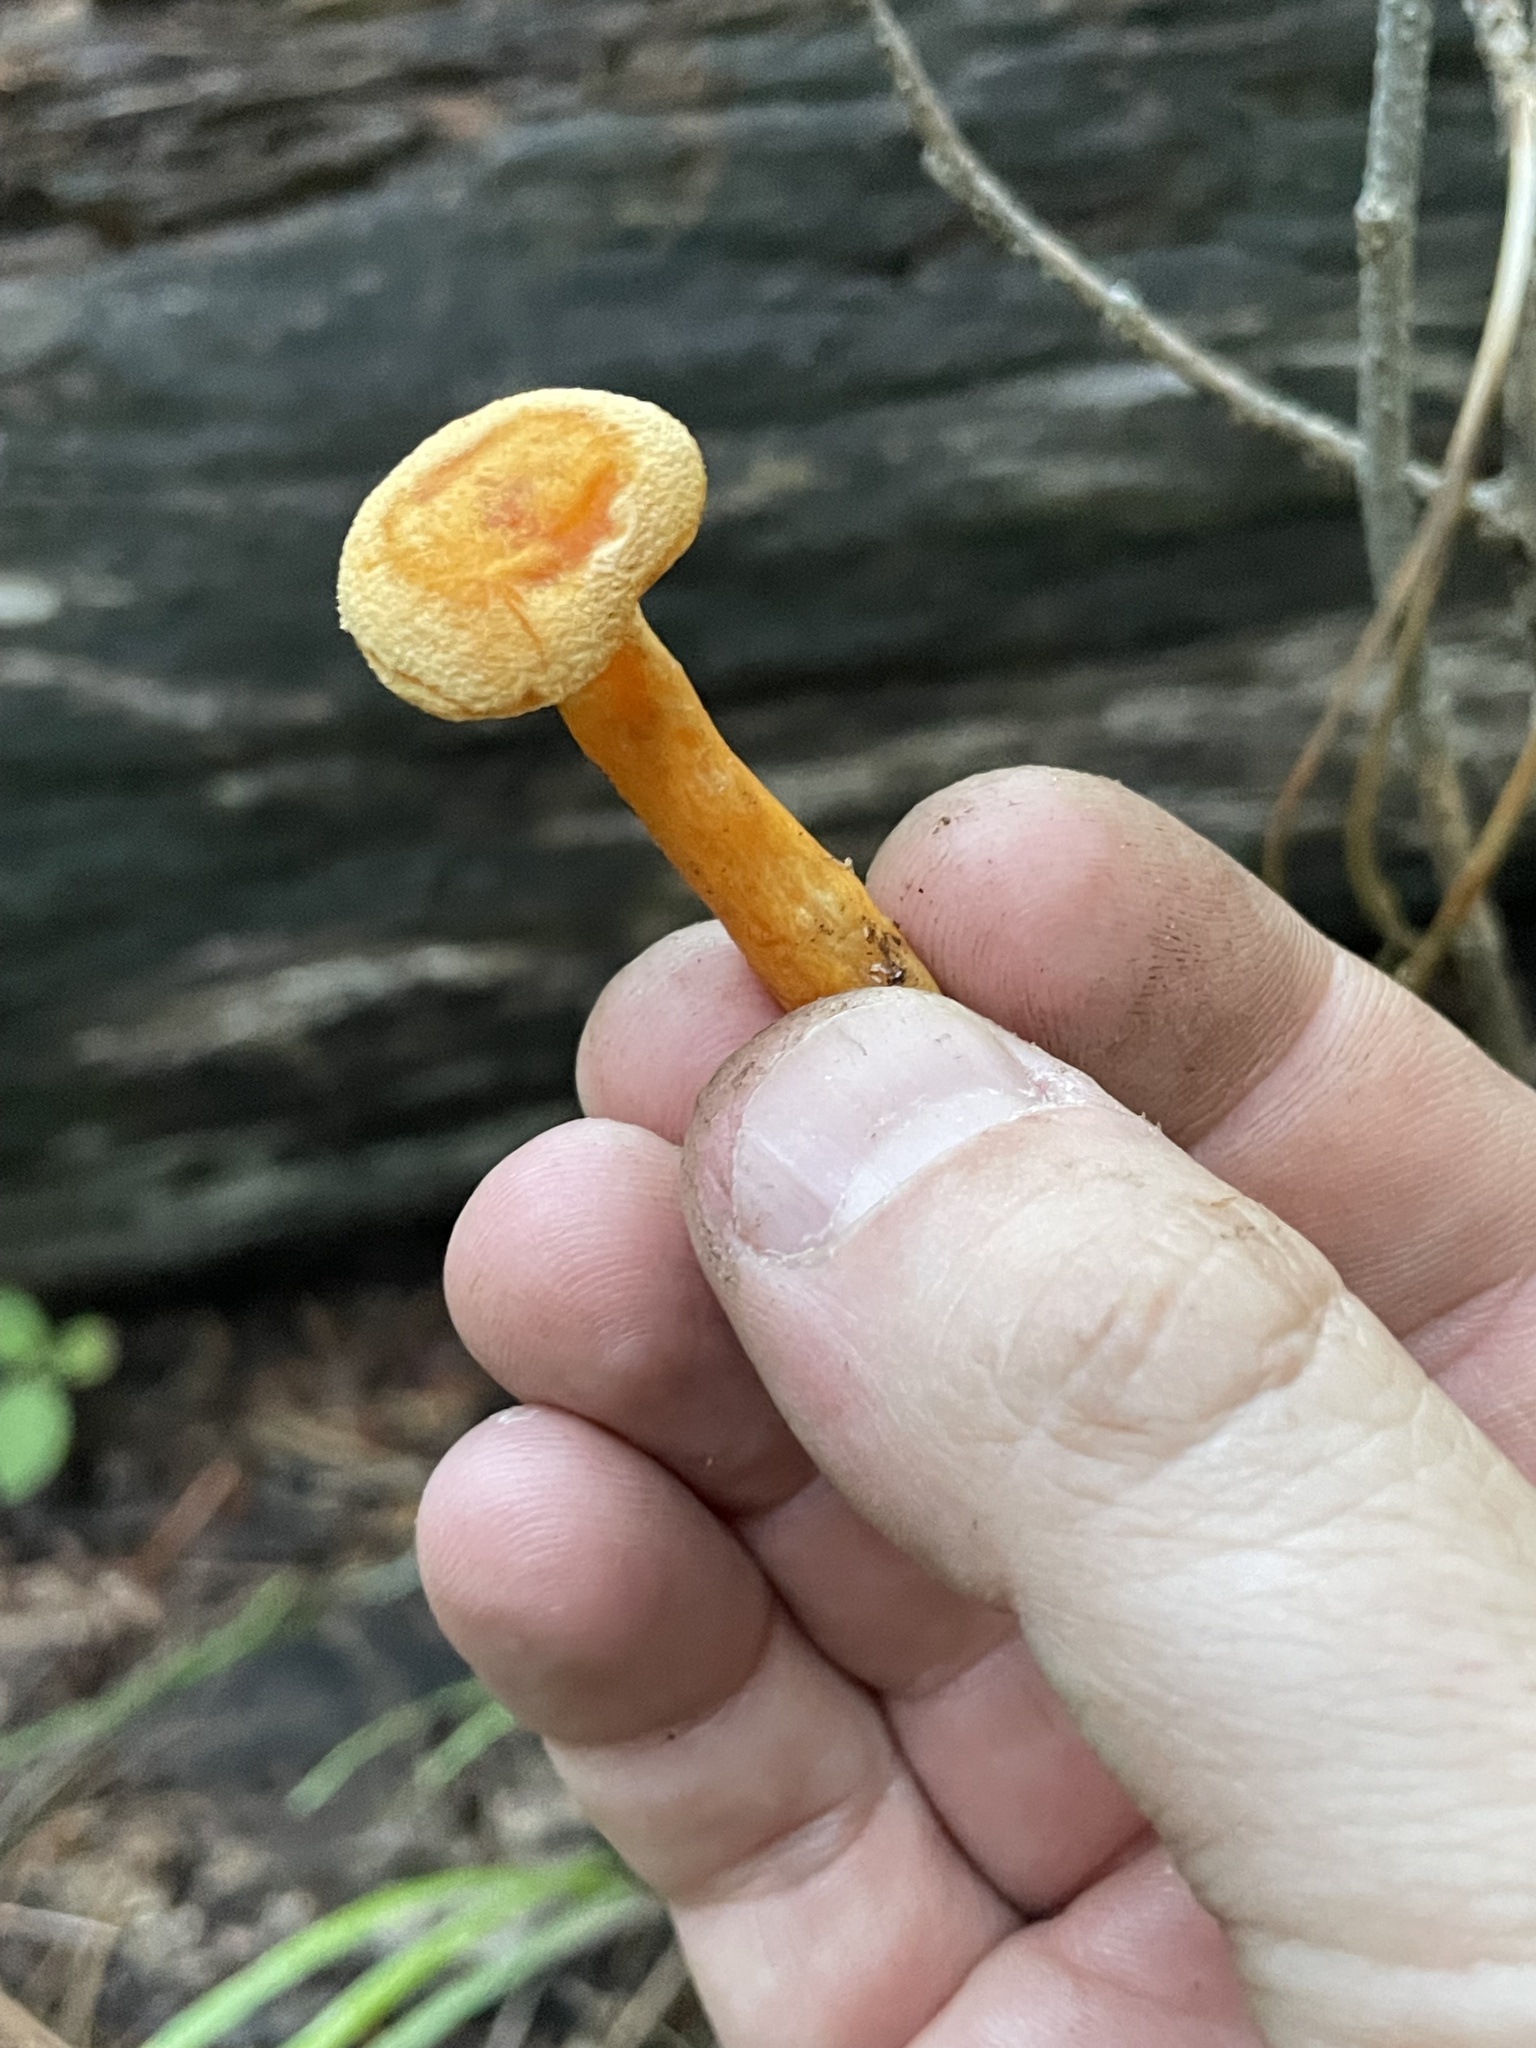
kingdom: Fungi
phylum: Basidiomycota
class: Agaricomycetes
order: Boletales
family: Hygrophoropsidaceae
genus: Hygrophoropsis
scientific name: Hygrophoropsis aurantiaca
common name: False chanterelle
